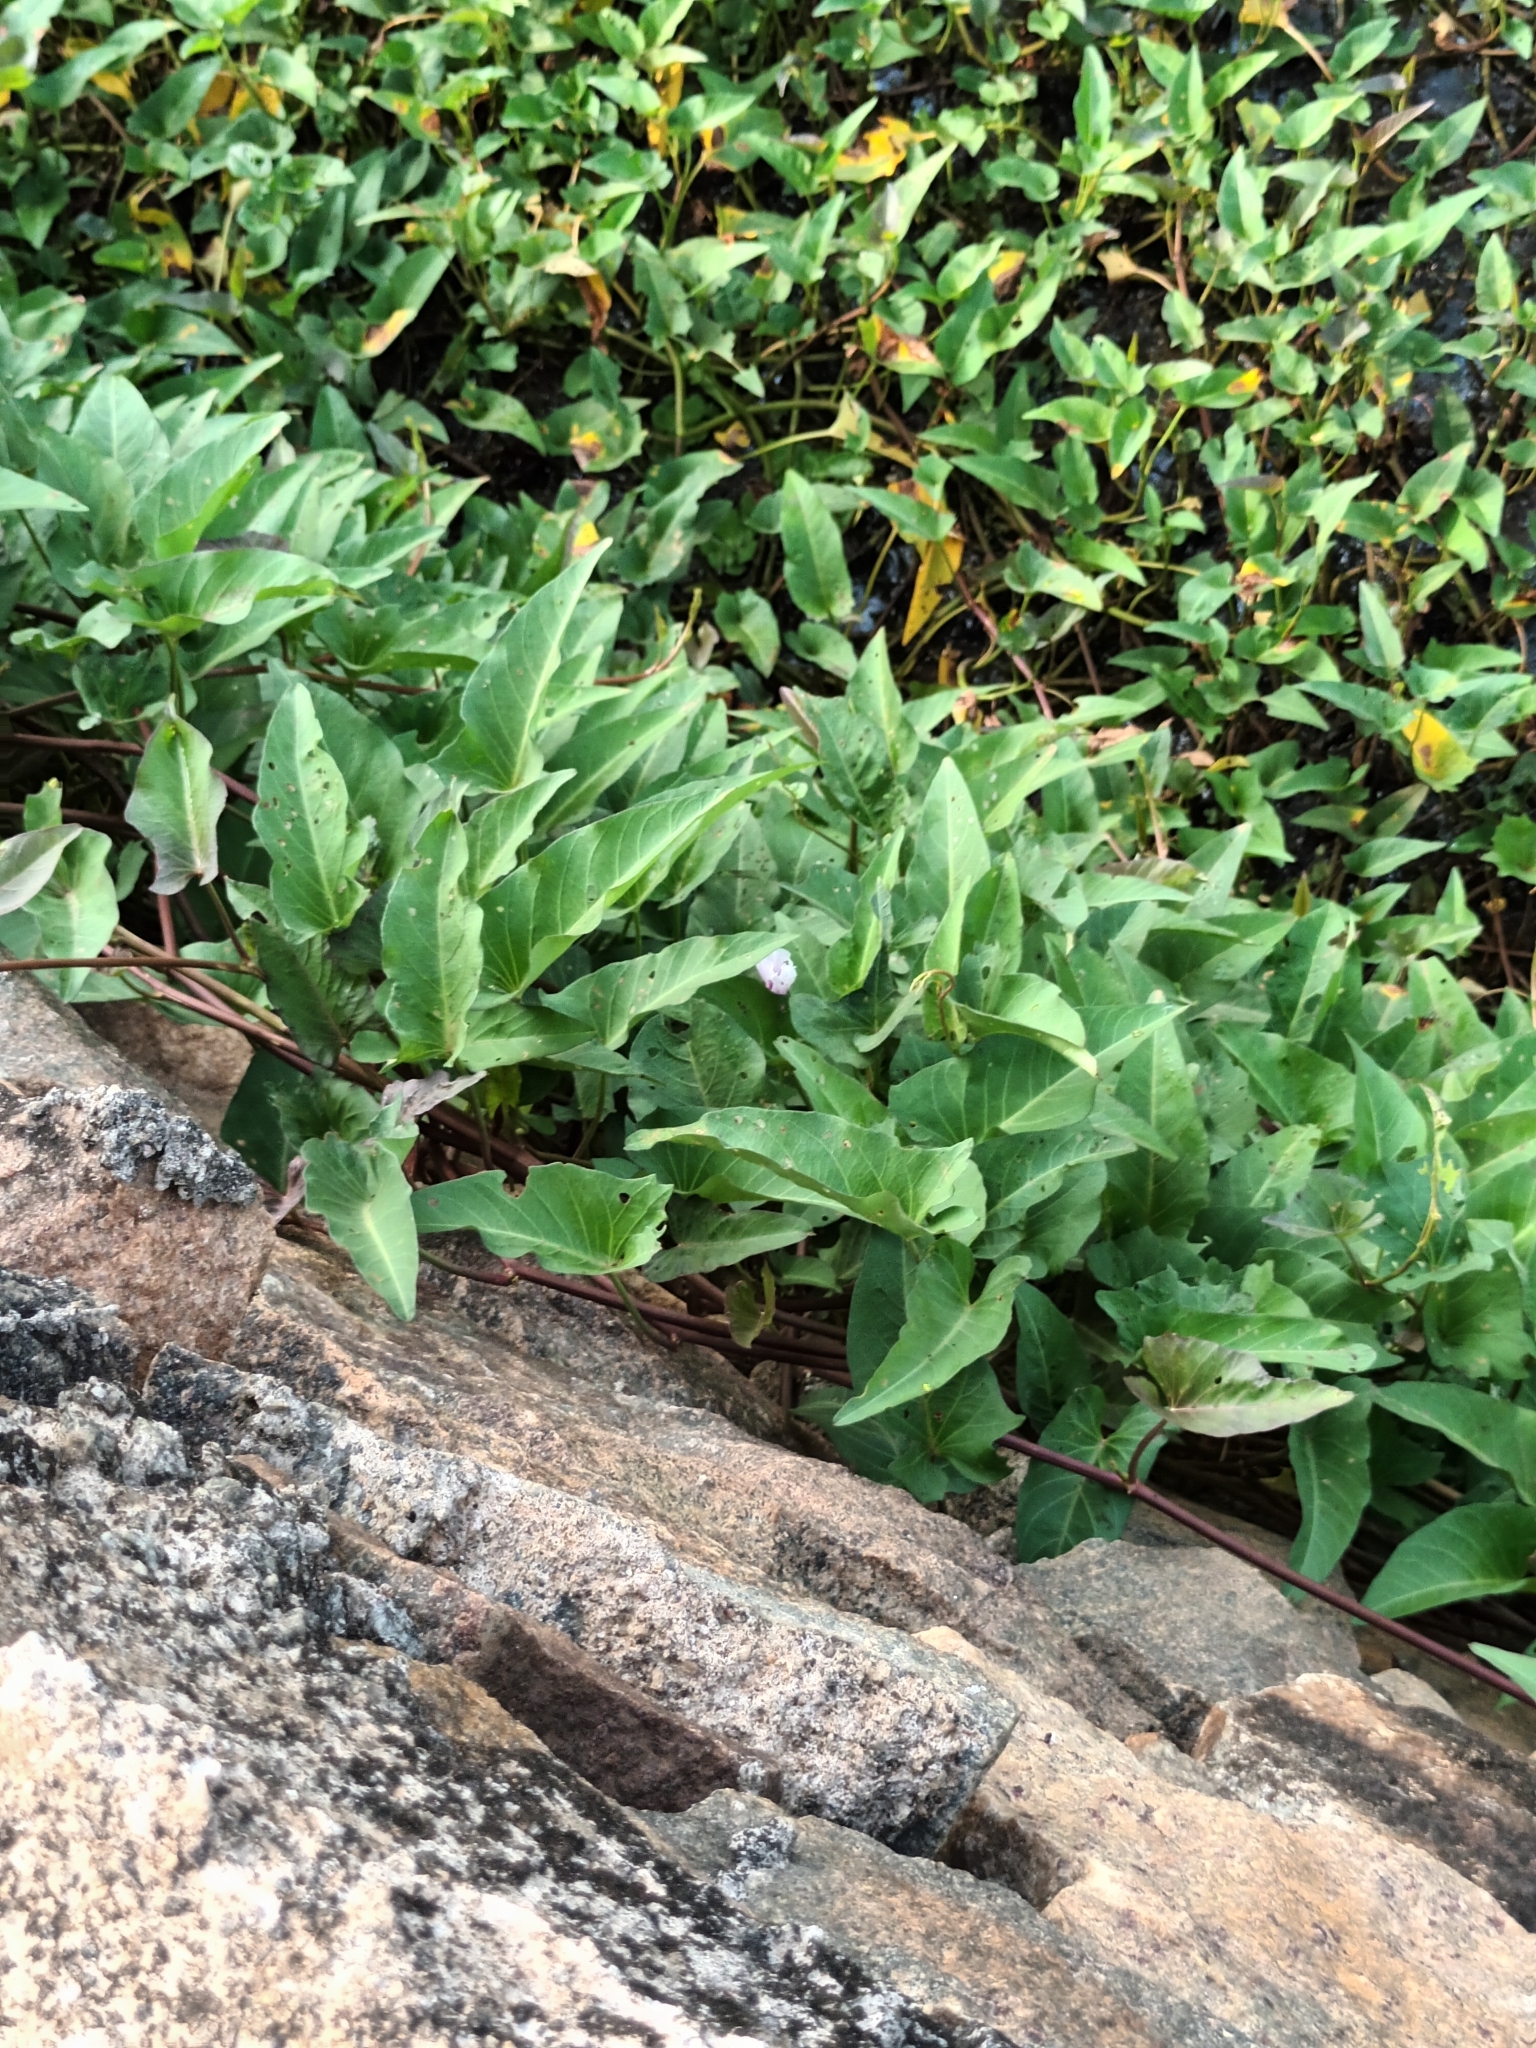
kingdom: Plantae
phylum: Tracheophyta
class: Magnoliopsida
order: Solanales
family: Convolvulaceae
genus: Ipomoea
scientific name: Ipomoea aquatica
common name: Swamp morning-glory
